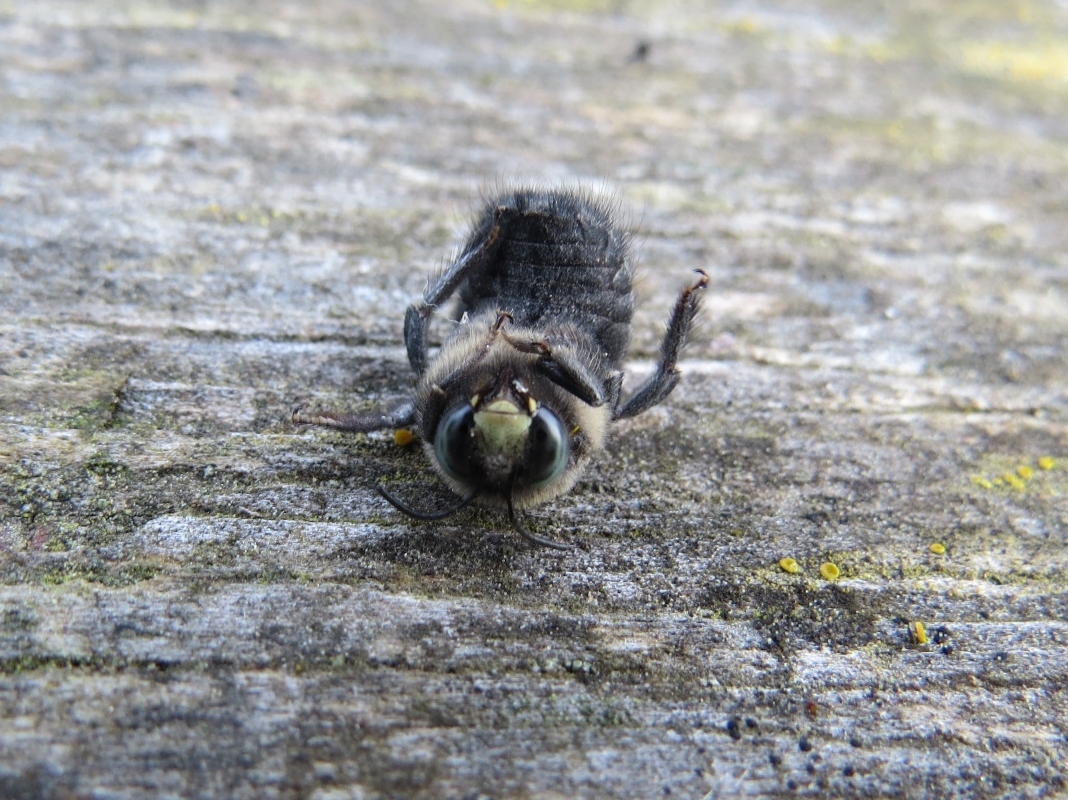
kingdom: Animalia
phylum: Arthropoda
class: Insecta
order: Hymenoptera
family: Apidae
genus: Xylocopa
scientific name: Xylocopa tabaniformis
